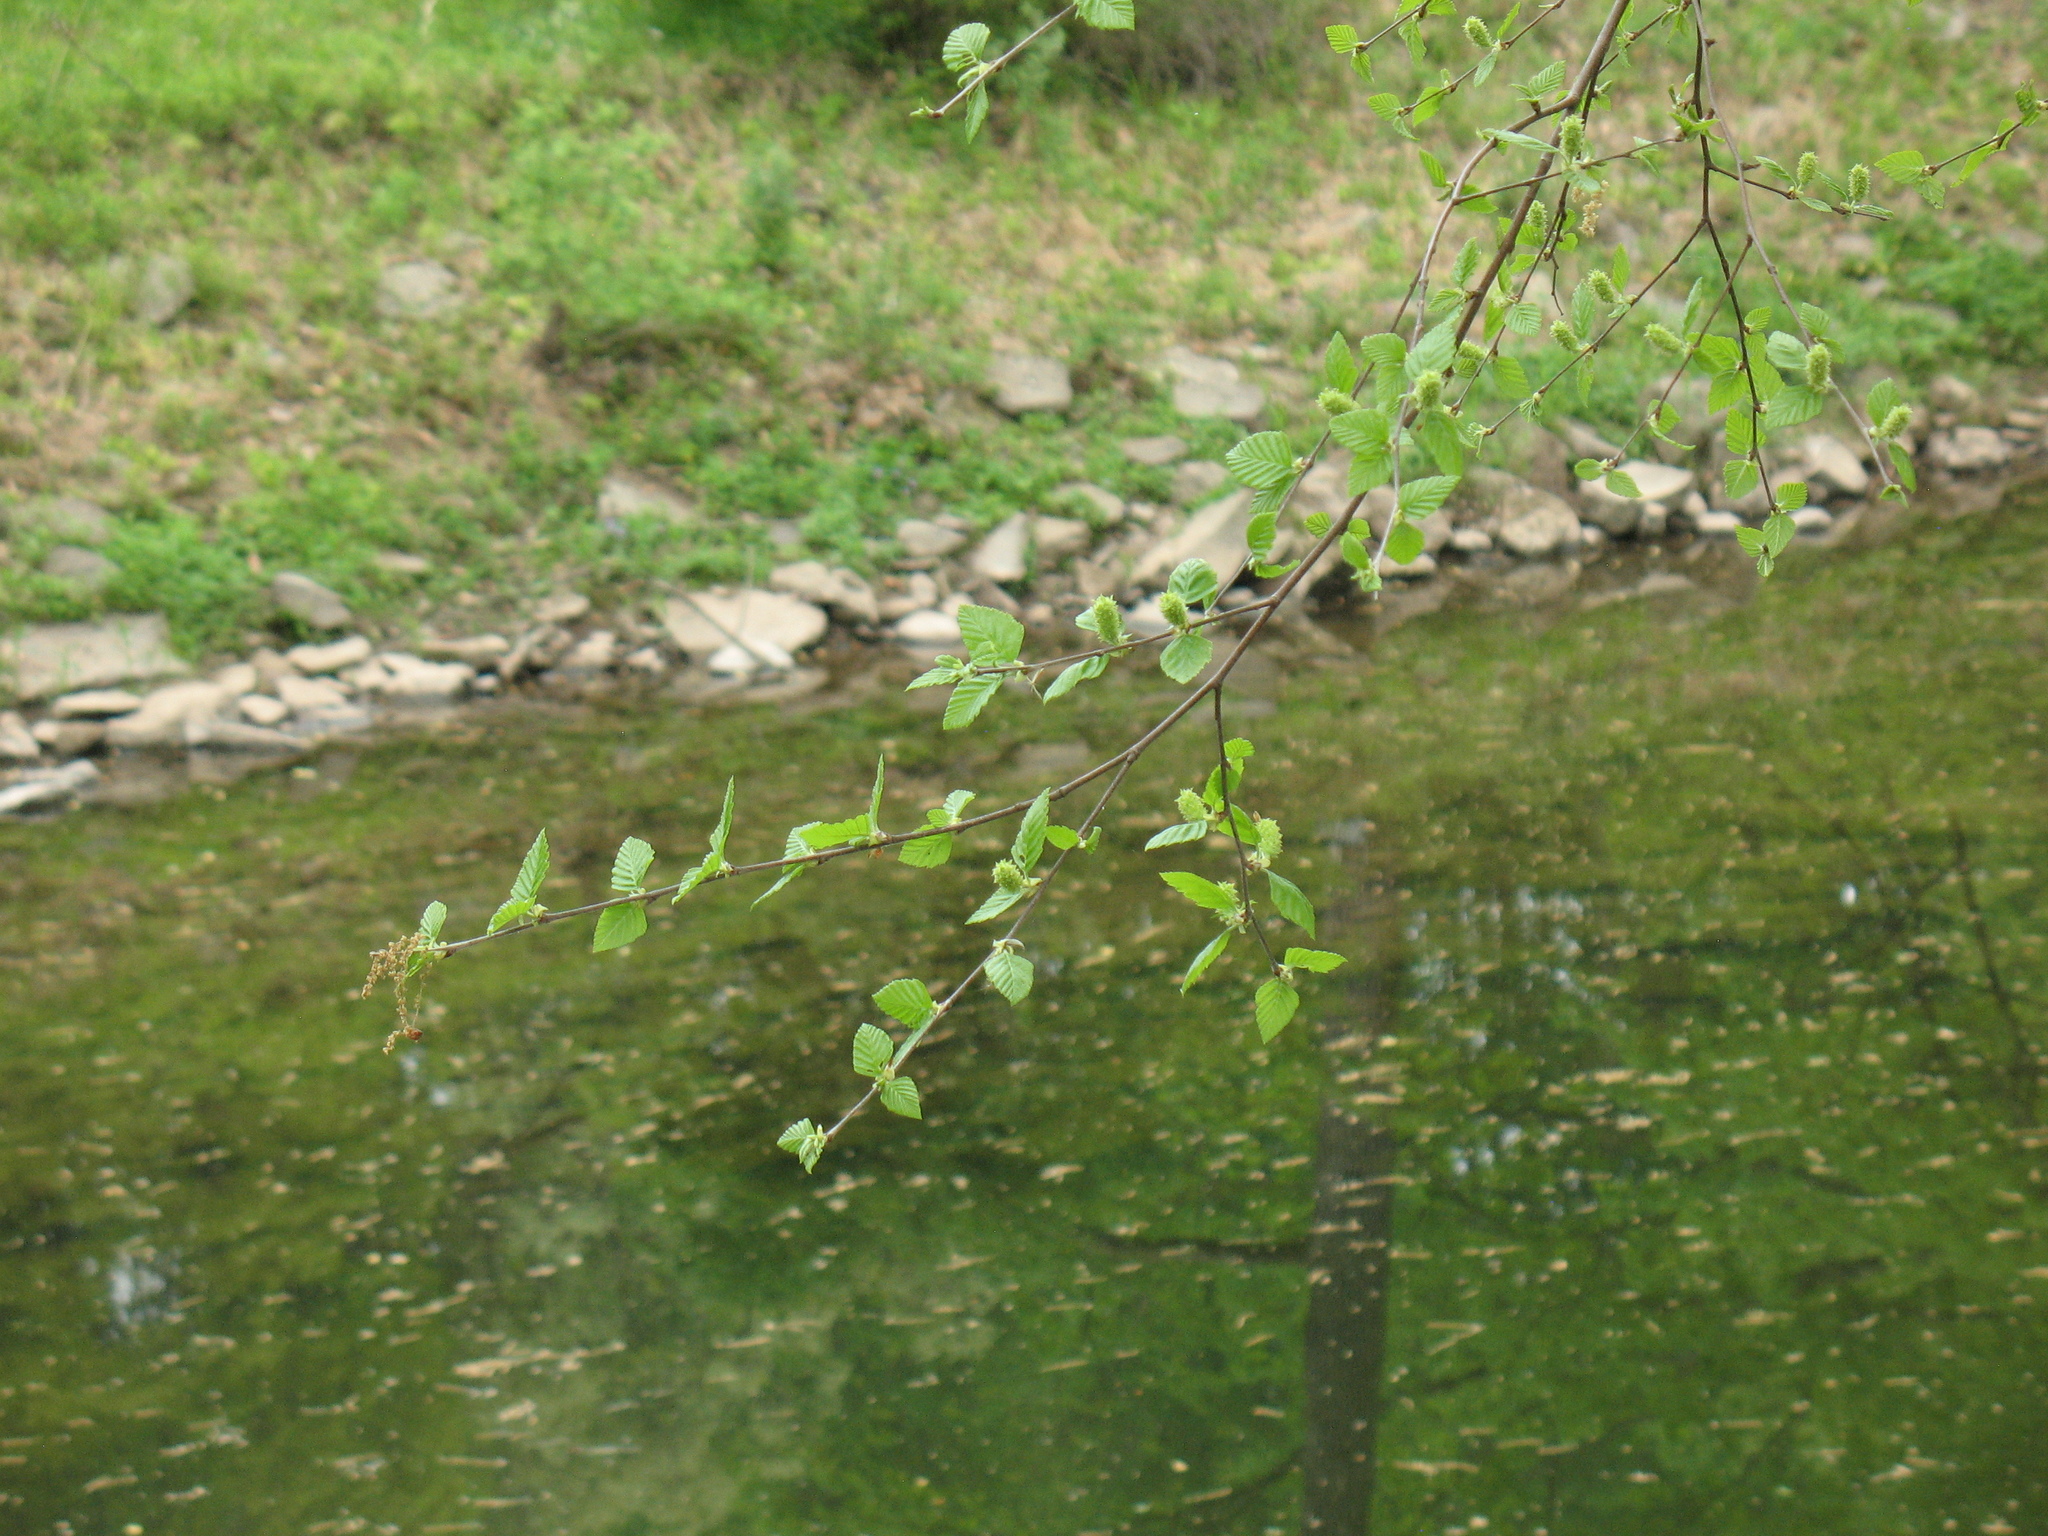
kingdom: Plantae
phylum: Tracheophyta
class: Magnoliopsida
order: Fagales
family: Betulaceae
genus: Betula
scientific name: Betula nigra
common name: Black birch
